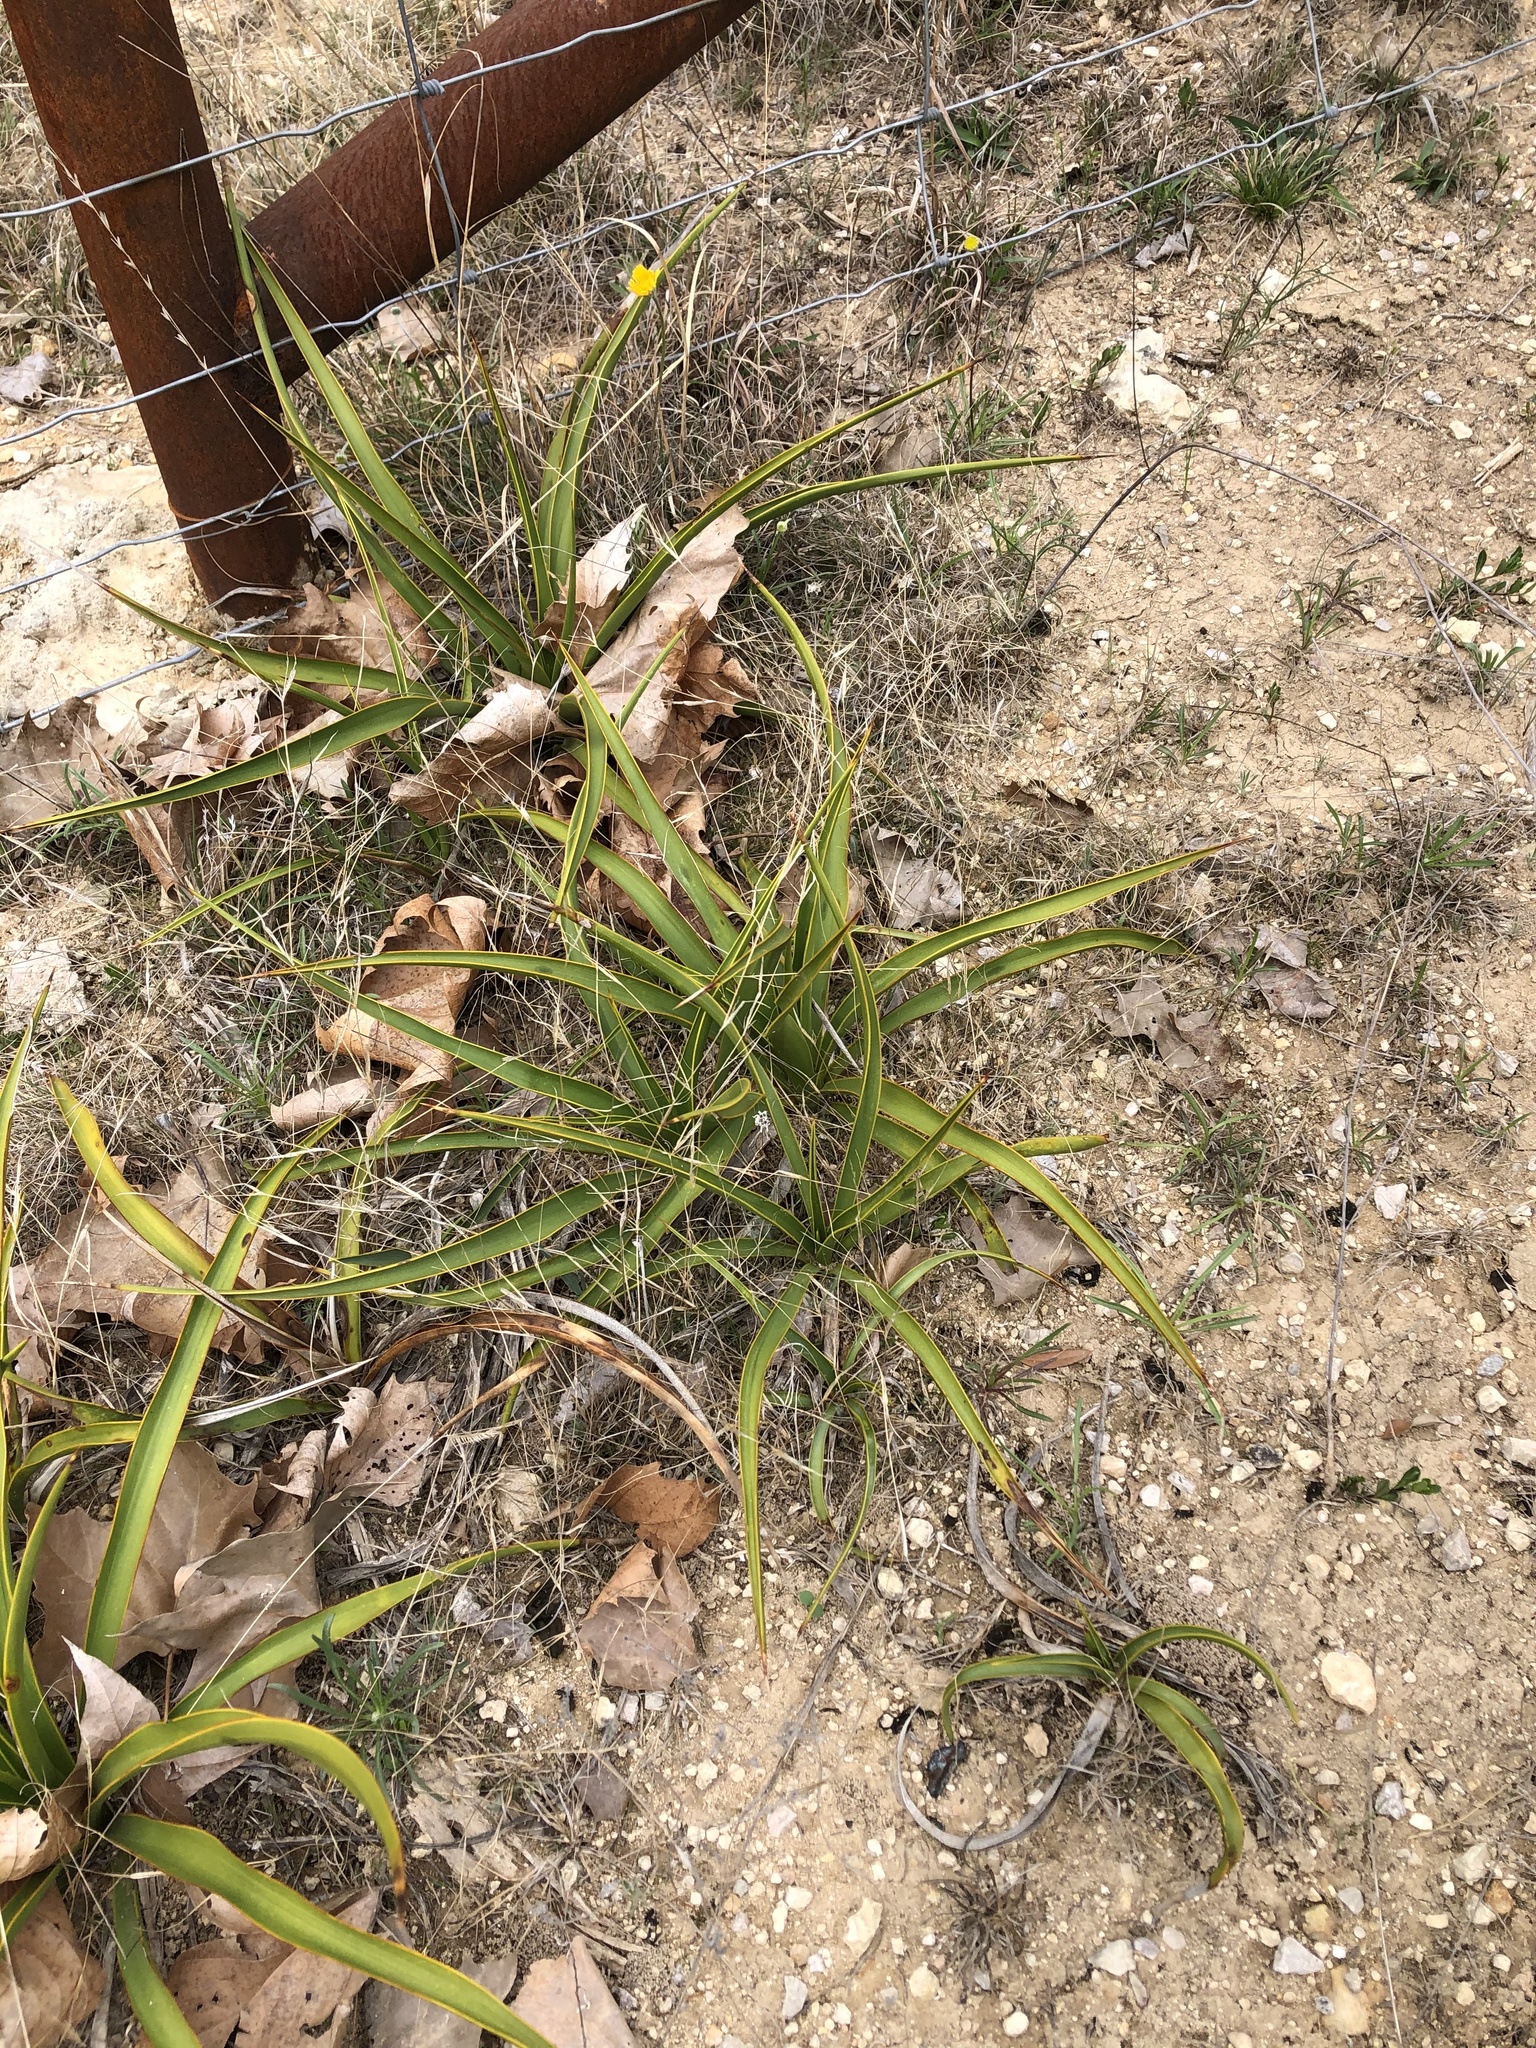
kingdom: Plantae
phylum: Tracheophyta
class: Liliopsida
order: Asparagales
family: Asparagaceae
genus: Yucca
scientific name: Yucca rupicola
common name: Twisted-leaf spanish-dagger
